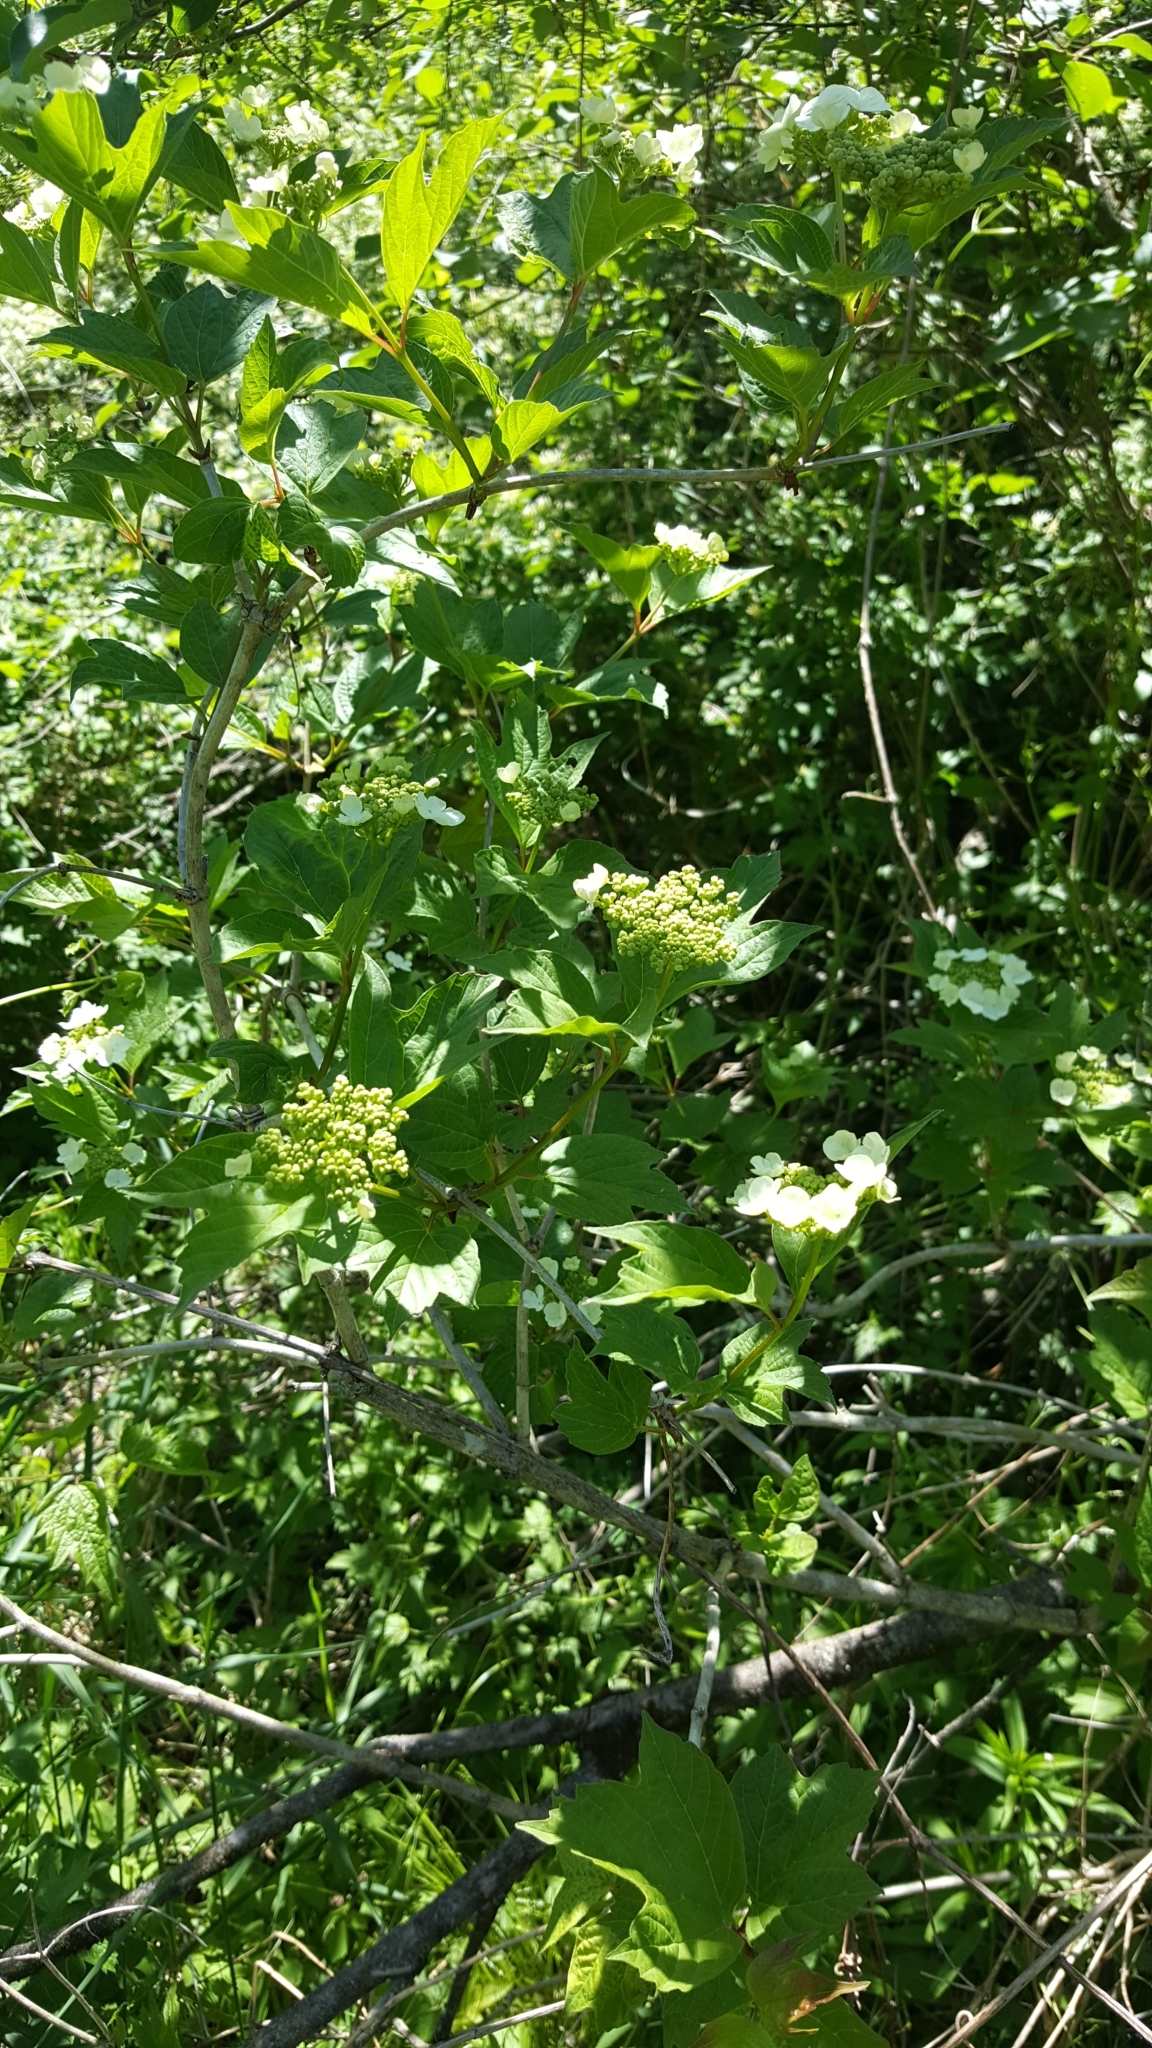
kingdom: Plantae
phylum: Tracheophyta
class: Magnoliopsida
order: Dipsacales
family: Viburnaceae
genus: Viburnum
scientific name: Viburnum trilobum
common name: American cranberrybush
